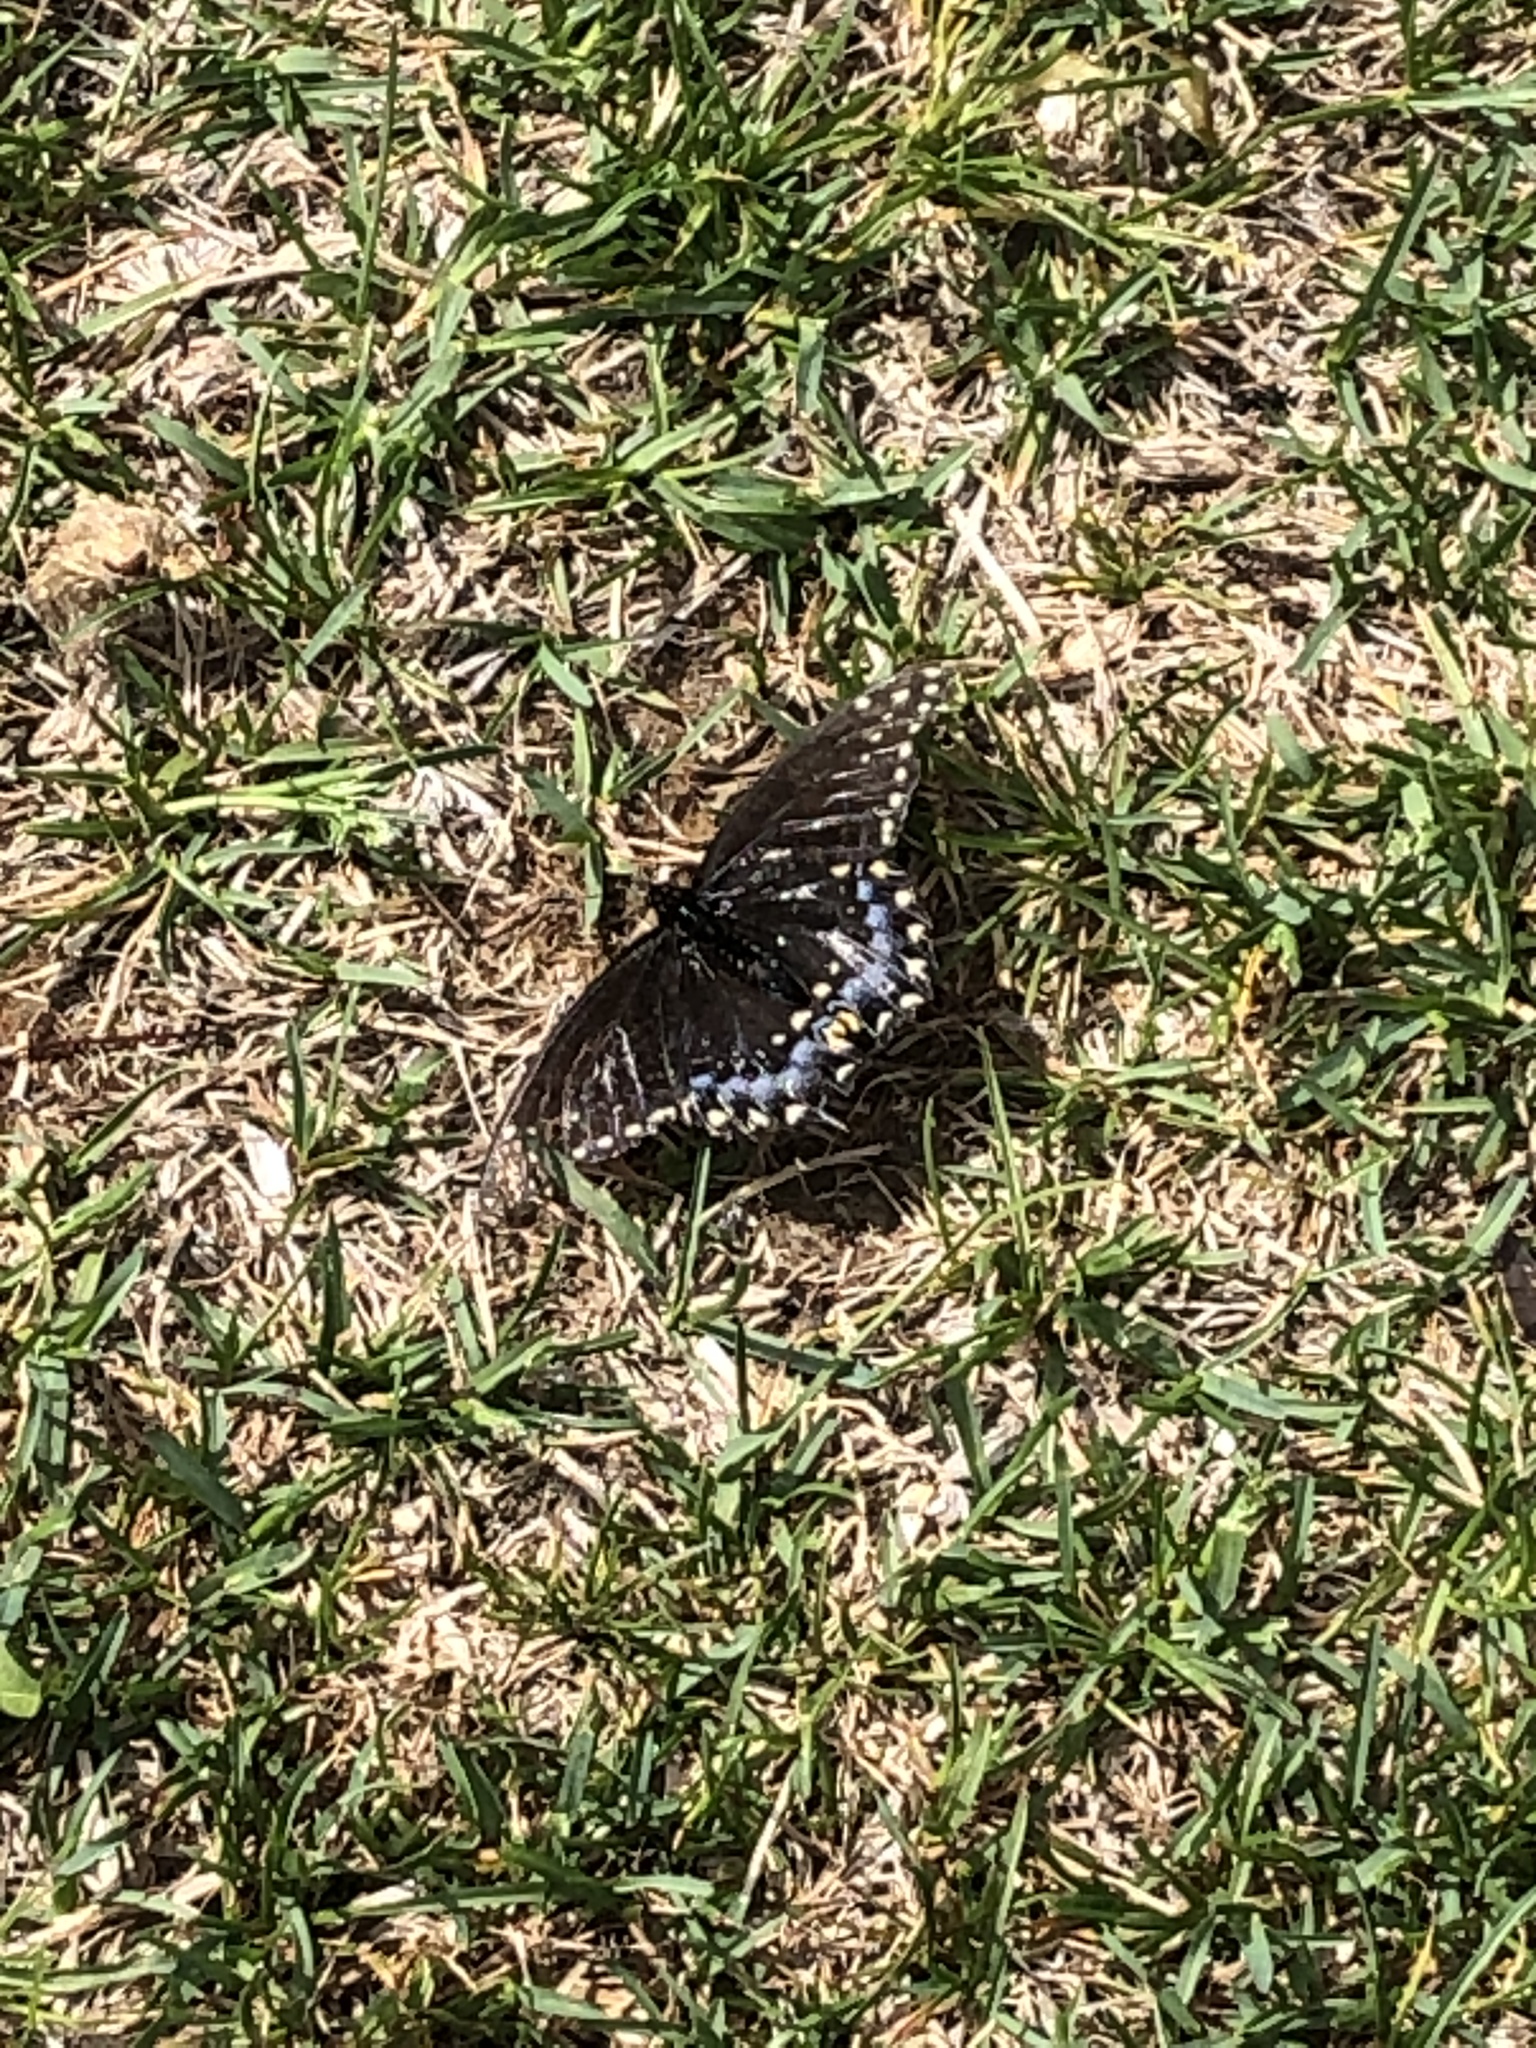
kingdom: Animalia
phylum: Arthropoda
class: Insecta
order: Lepidoptera
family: Papilionidae
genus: Papilio
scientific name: Papilio polyxenes
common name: Black swallowtail
